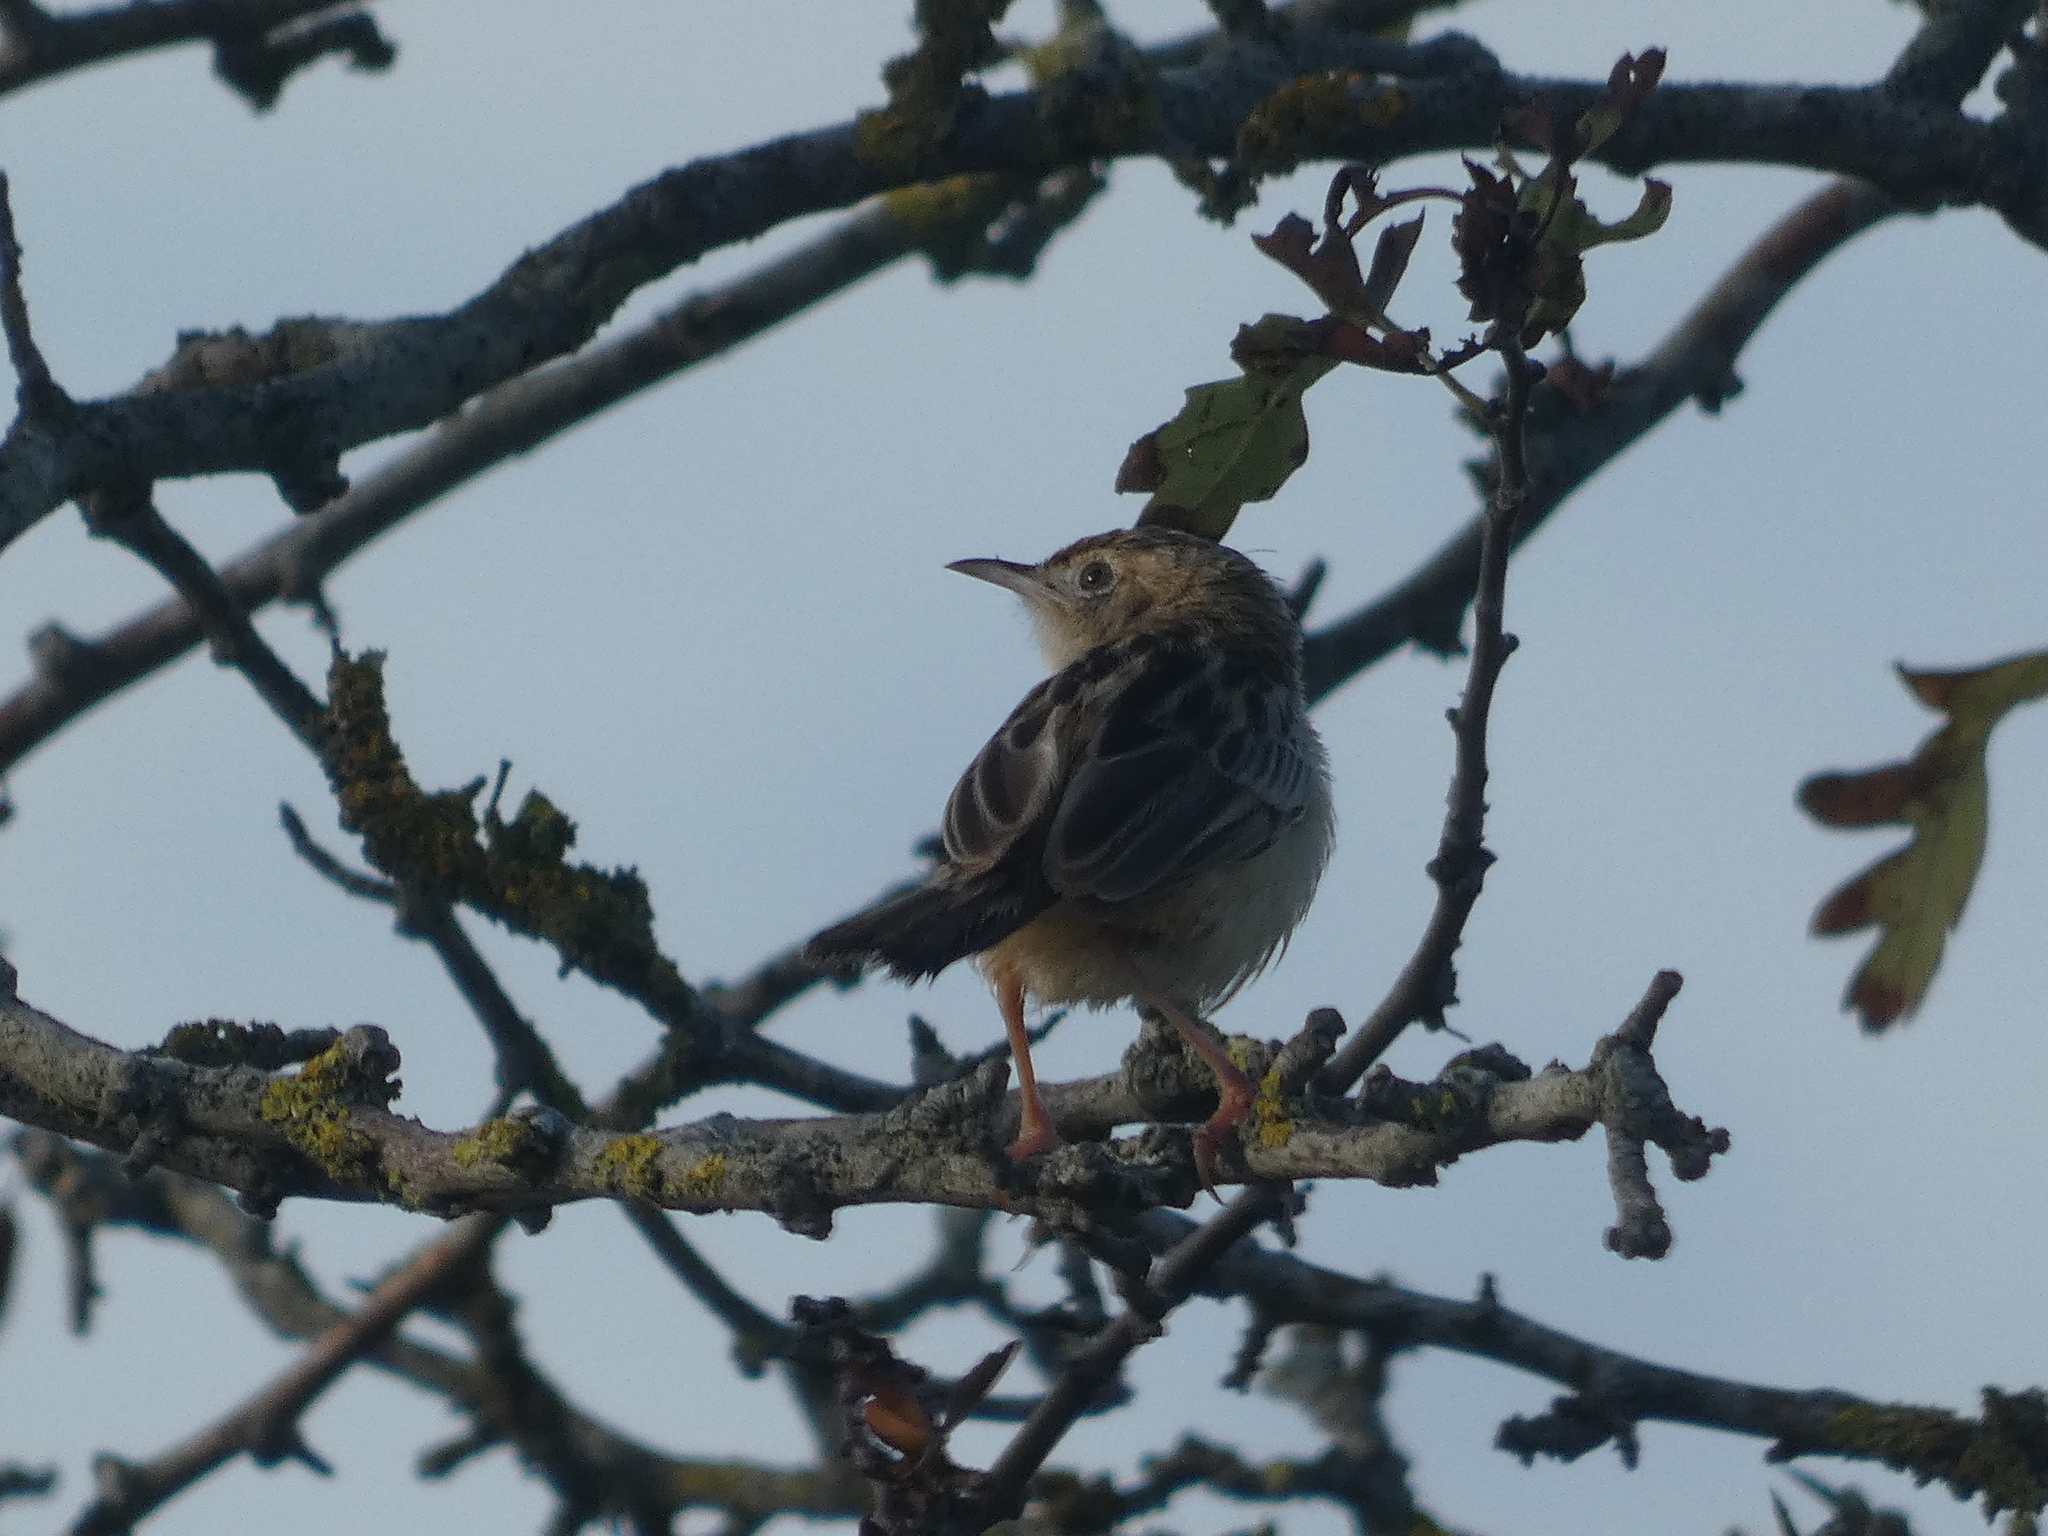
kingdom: Animalia
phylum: Chordata
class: Aves
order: Passeriformes
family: Cisticolidae
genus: Cisticola
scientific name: Cisticola juncidis
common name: Zitting cisticola
